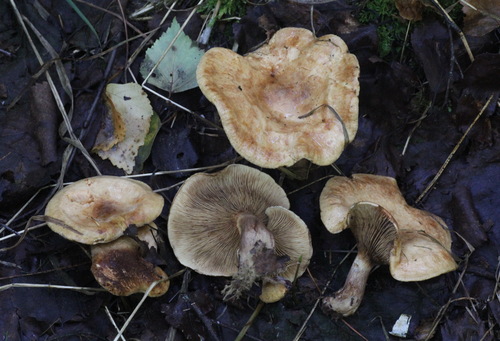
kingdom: Fungi
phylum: Basidiomycota
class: Agaricomycetes
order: Boletales
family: Paxillaceae
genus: Paxillus
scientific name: Paxillus involutus
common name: Brown roll rim
